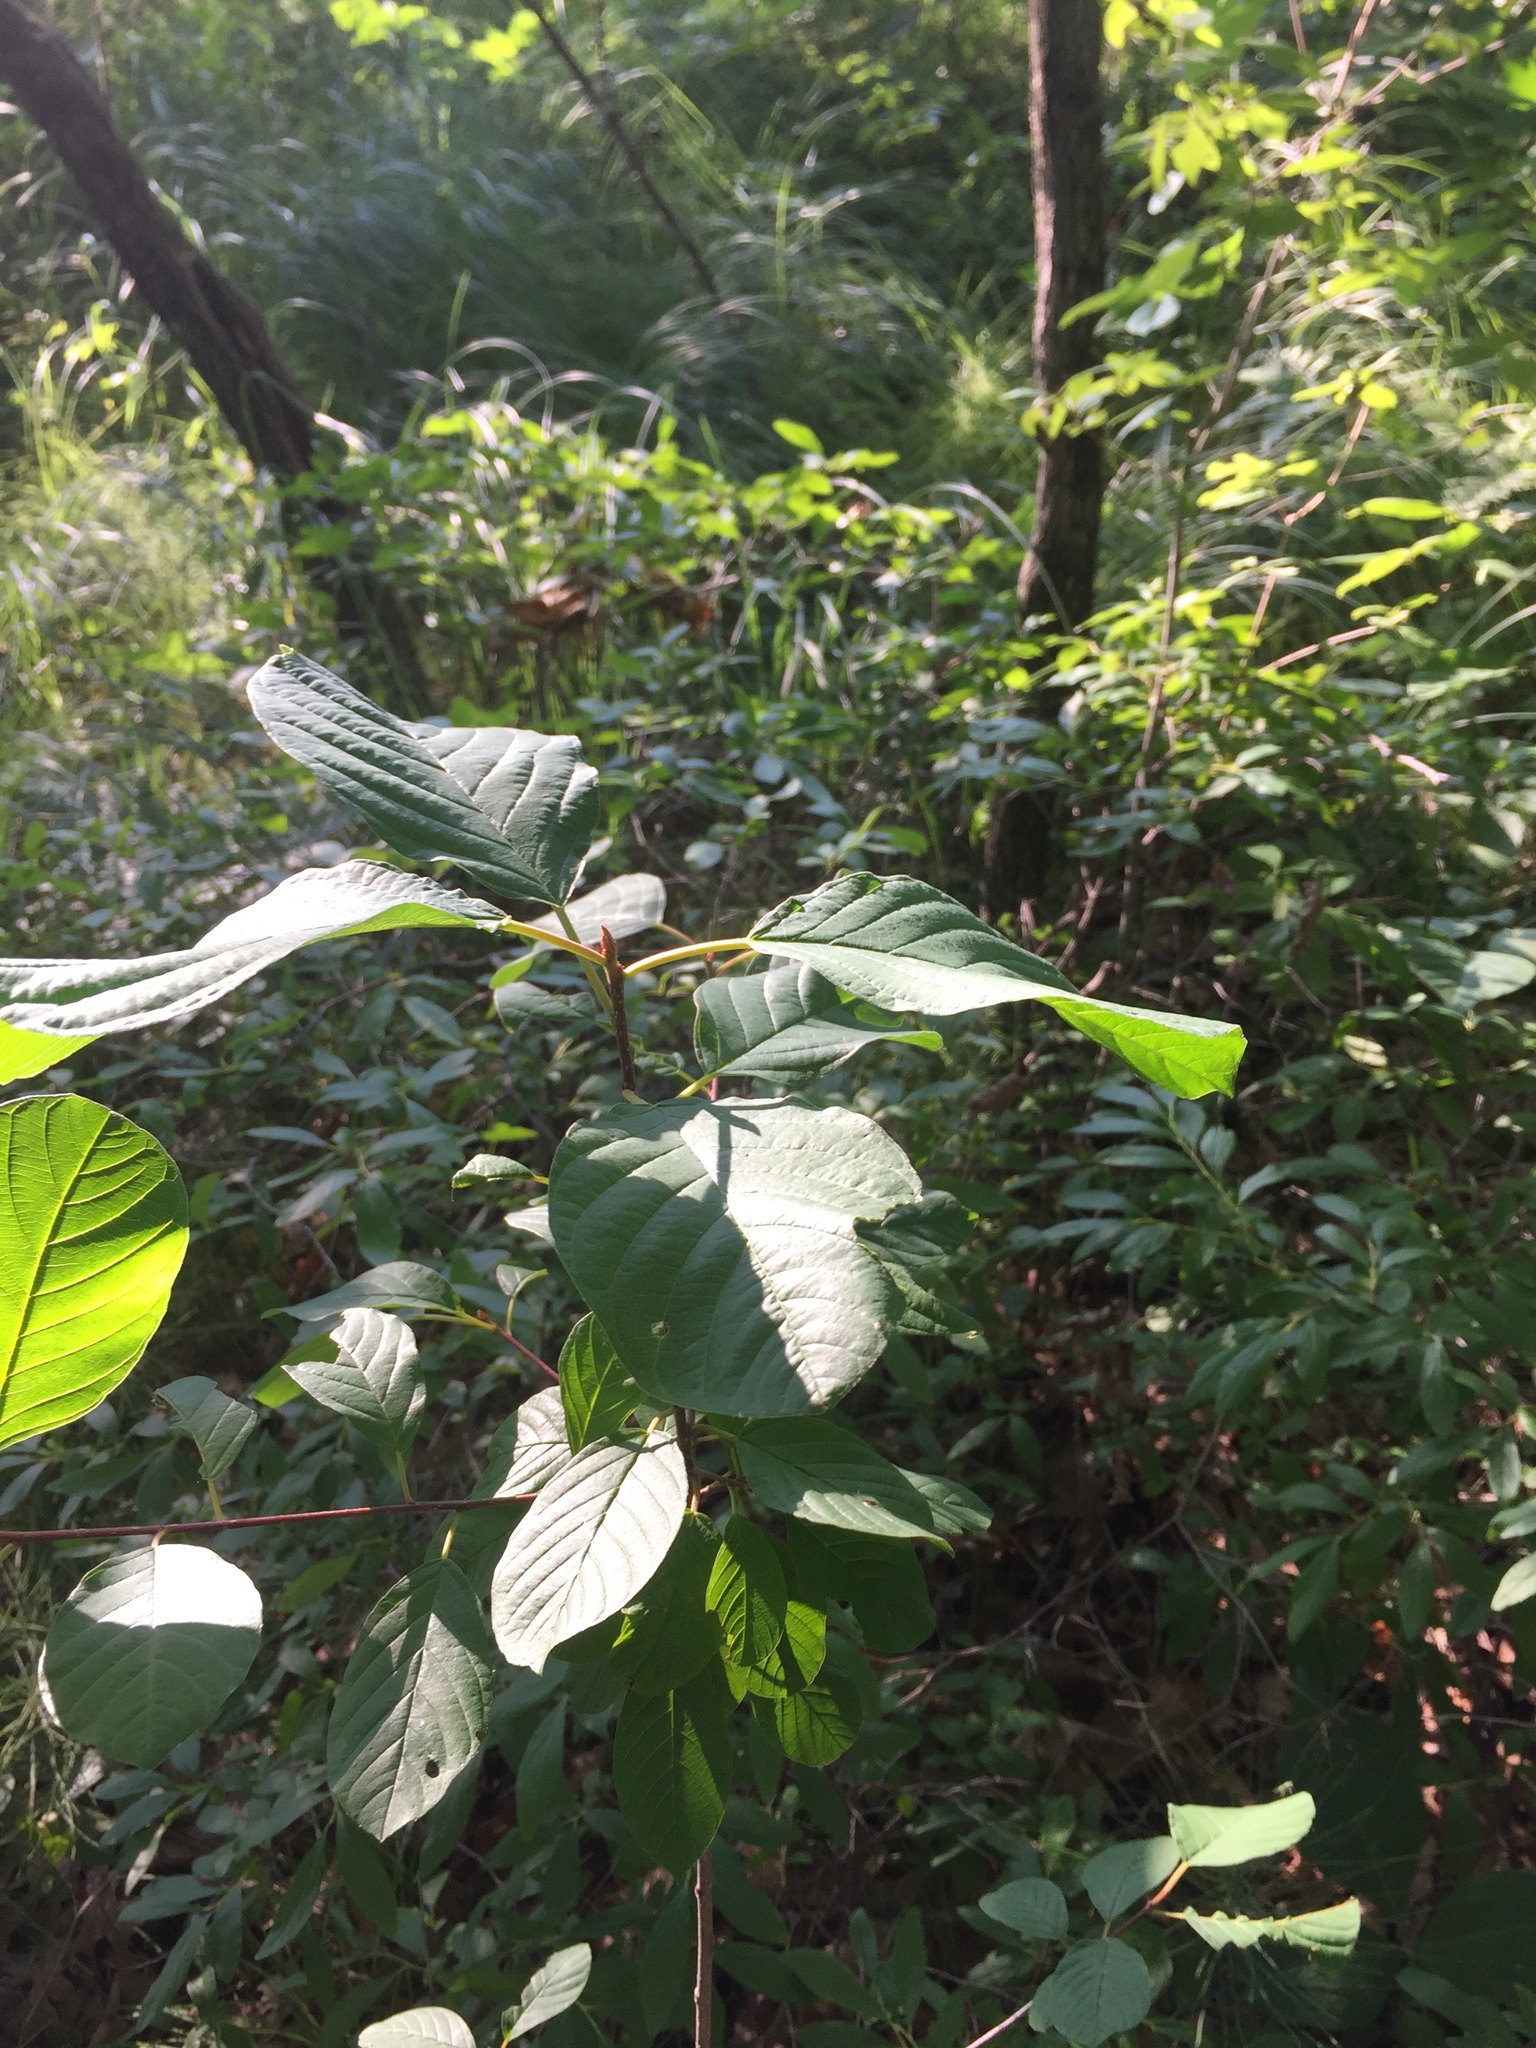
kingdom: Plantae
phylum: Tracheophyta
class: Magnoliopsida
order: Rosales
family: Rhamnaceae
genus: Frangula
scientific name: Frangula alnus
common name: Alder buckthorn
